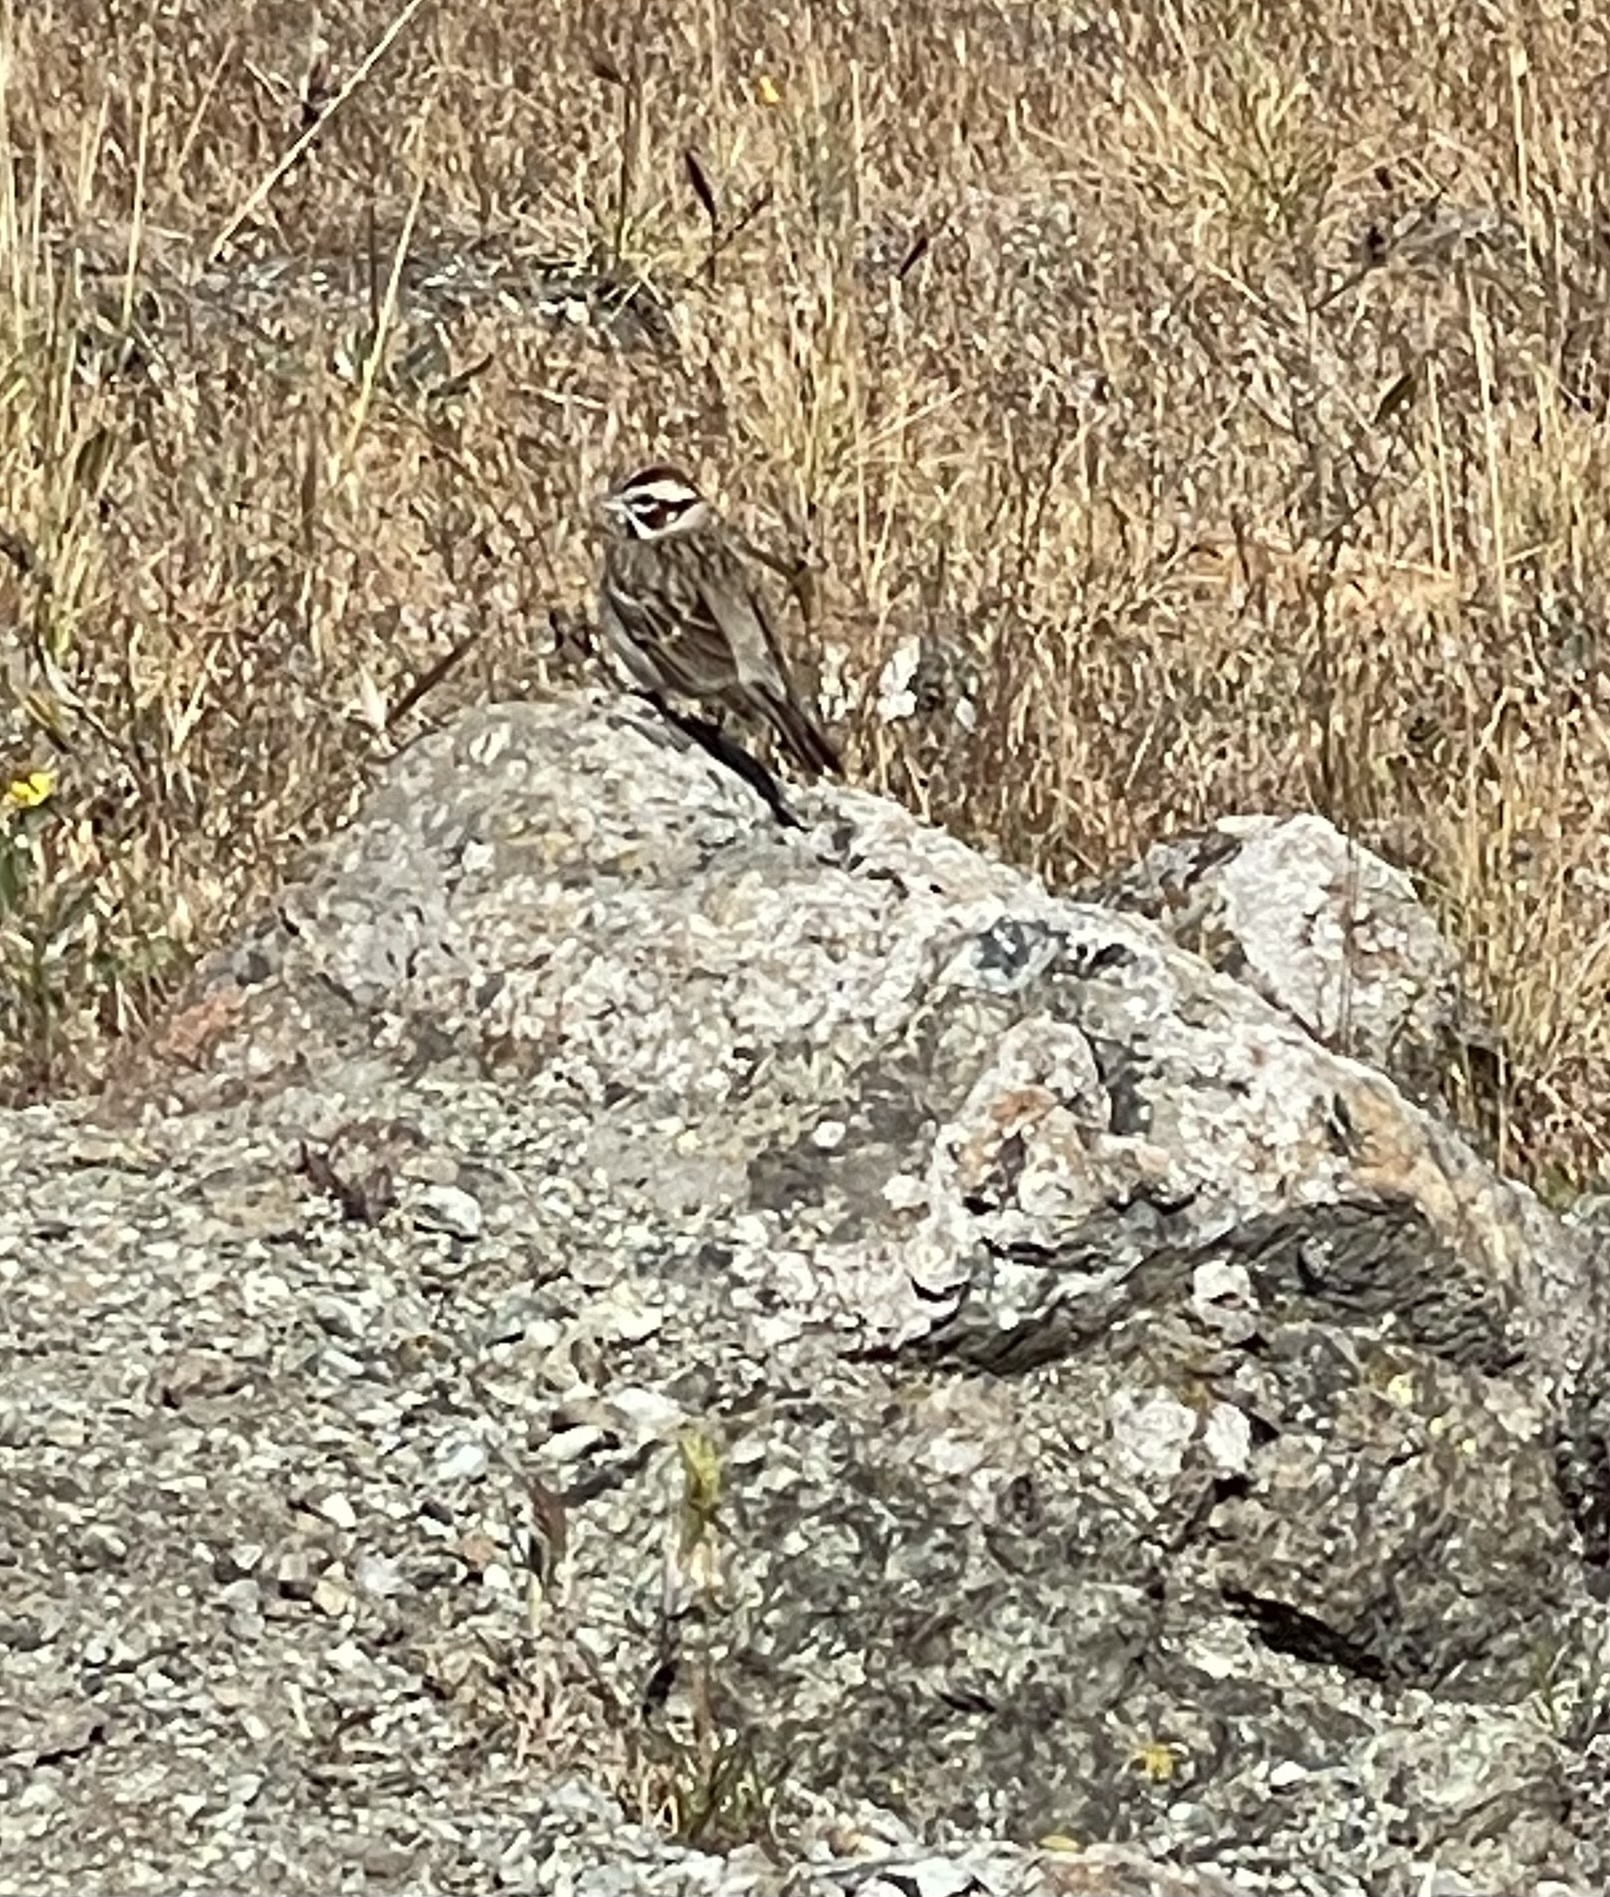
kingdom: Animalia
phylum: Chordata
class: Aves
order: Passeriformes
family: Passerellidae
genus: Chondestes
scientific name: Chondestes grammacus
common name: Lark sparrow
